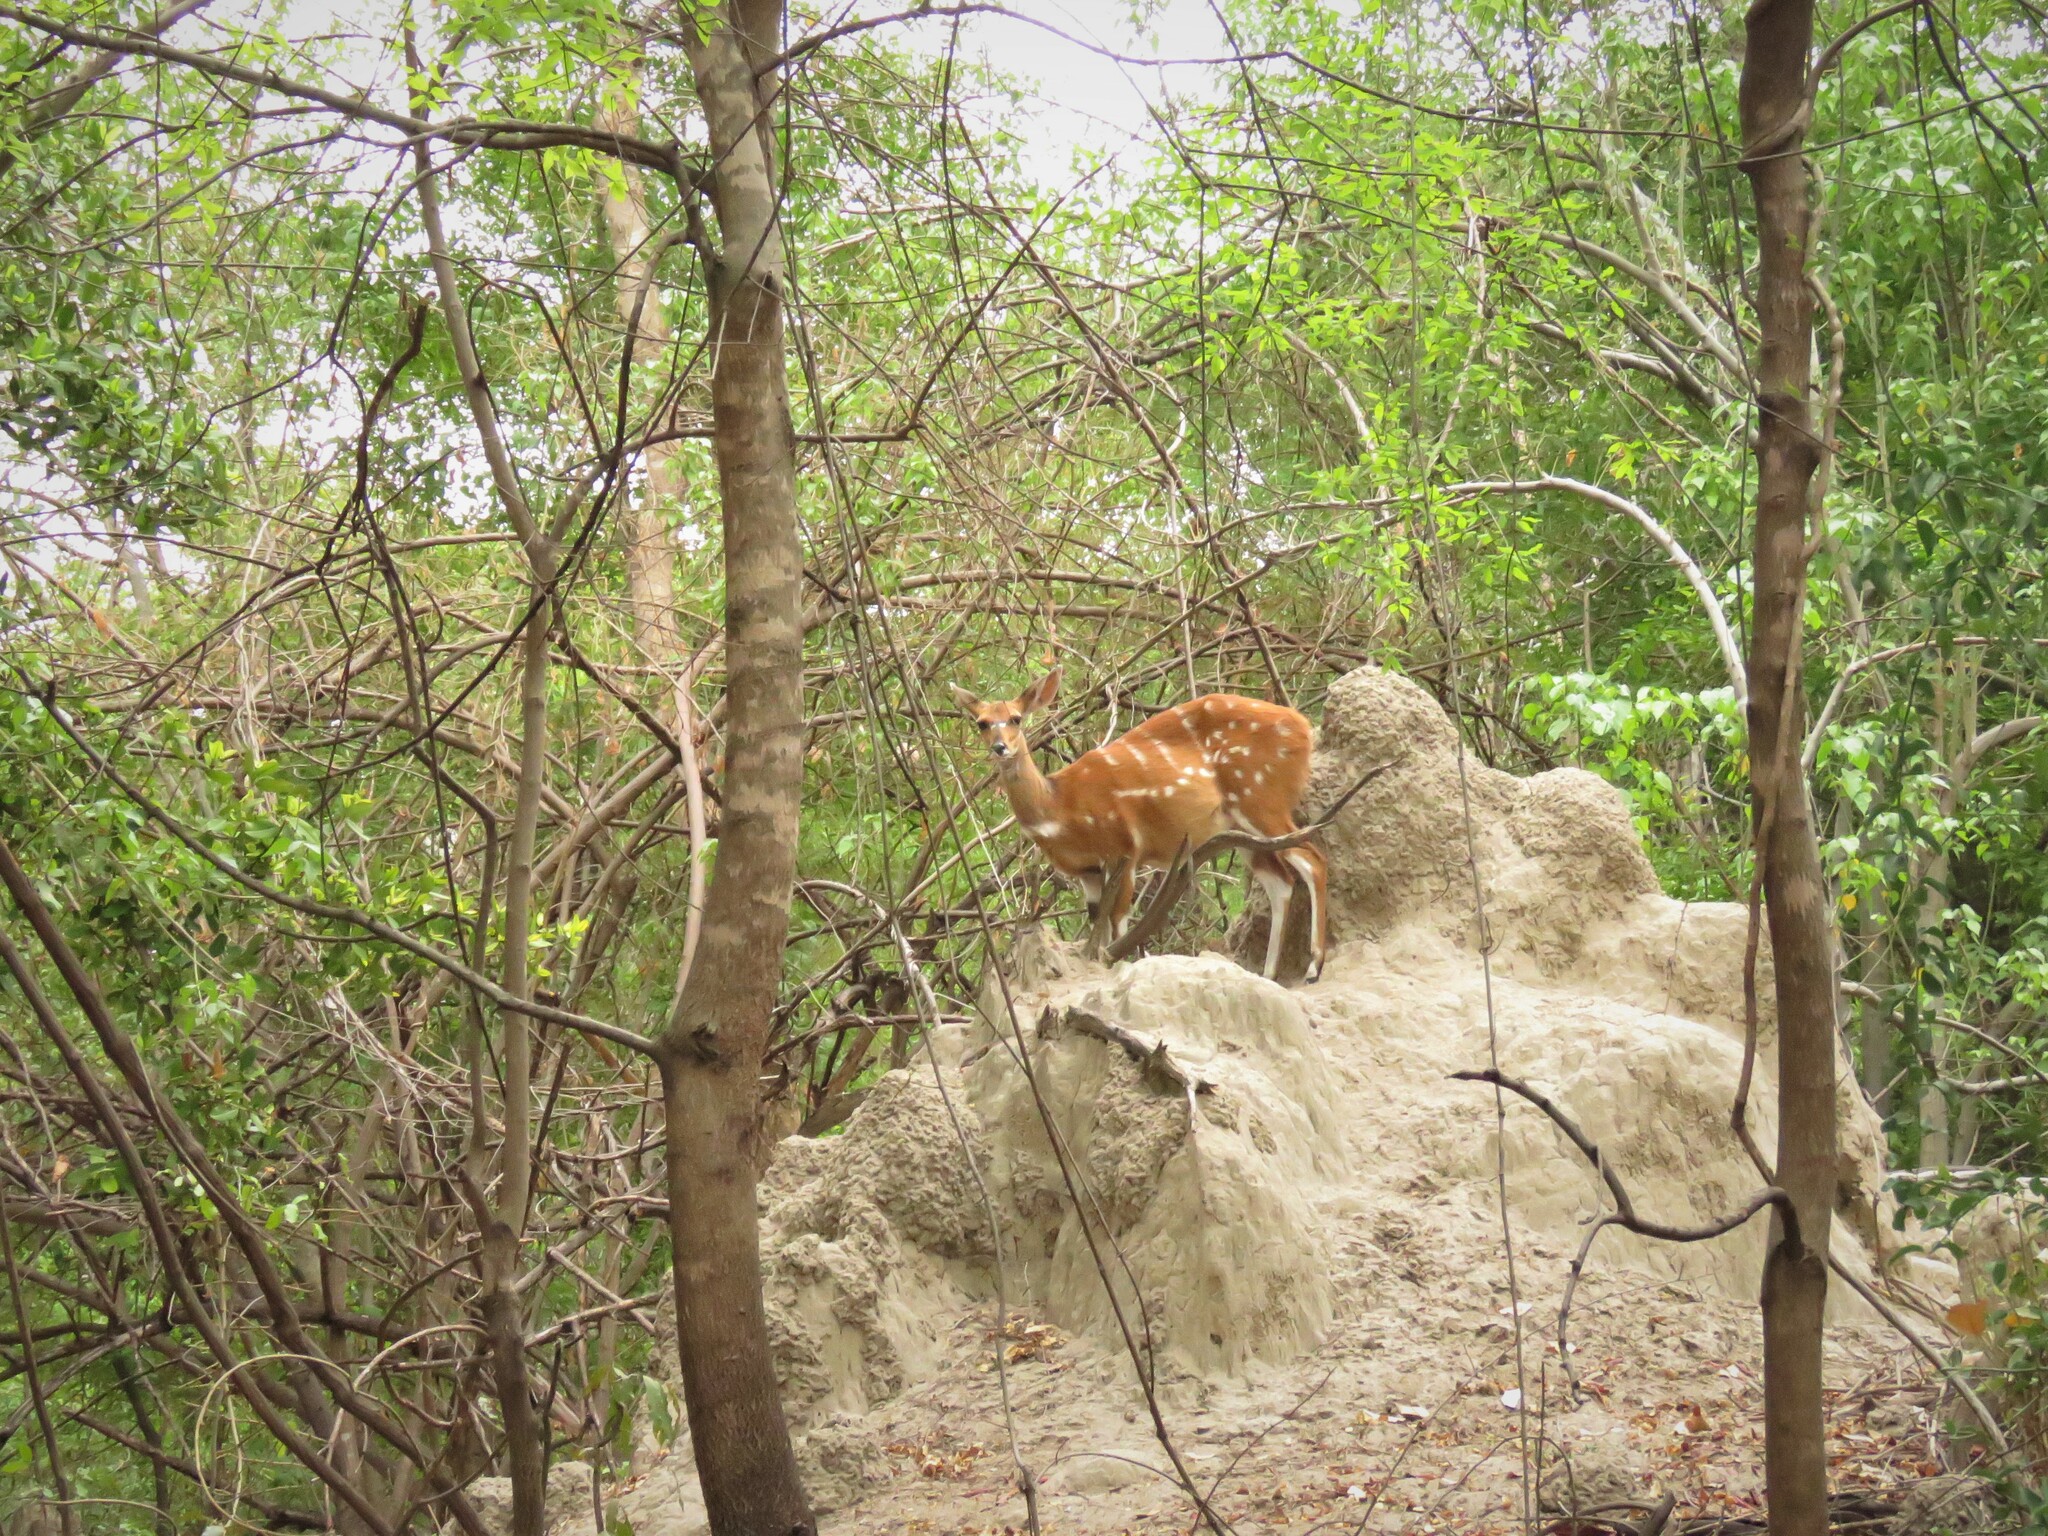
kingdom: Animalia
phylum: Chordata
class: Mammalia
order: Artiodactyla
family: Bovidae
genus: Tragelaphus
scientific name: Tragelaphus scriptus
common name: Bushbuck
